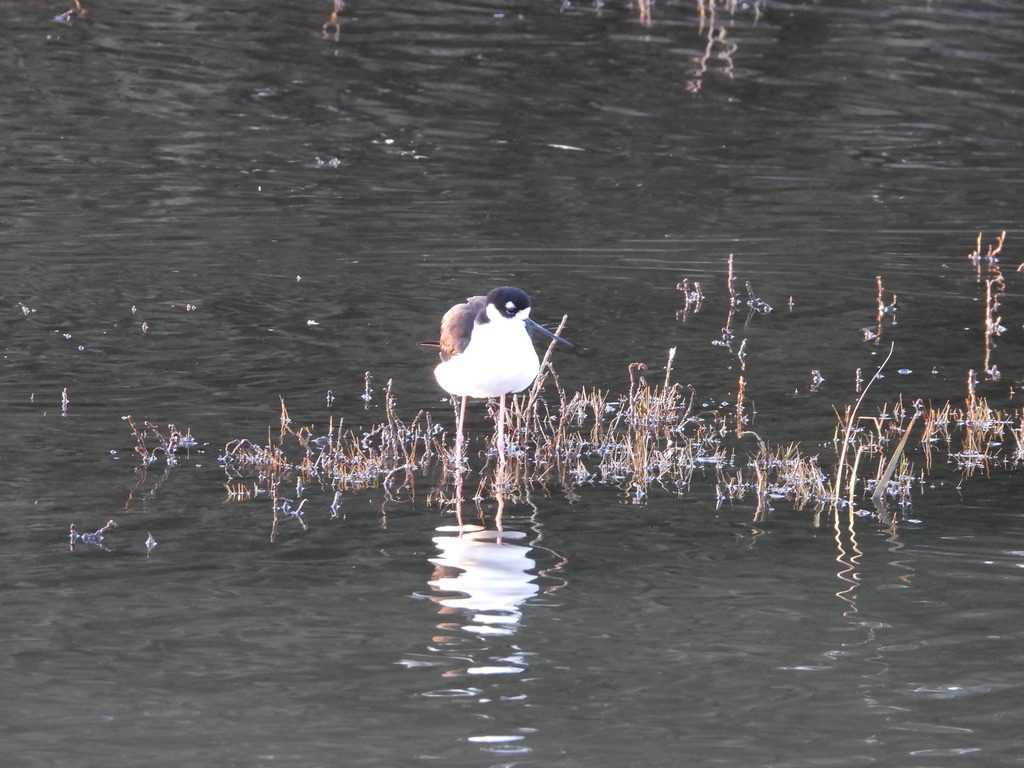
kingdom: Animalia
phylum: Chordata
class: Aves
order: Charadriiformes
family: Recurvirostridae
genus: Himantopus
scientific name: Himantopus mexicanus
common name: Black-necked stilt
